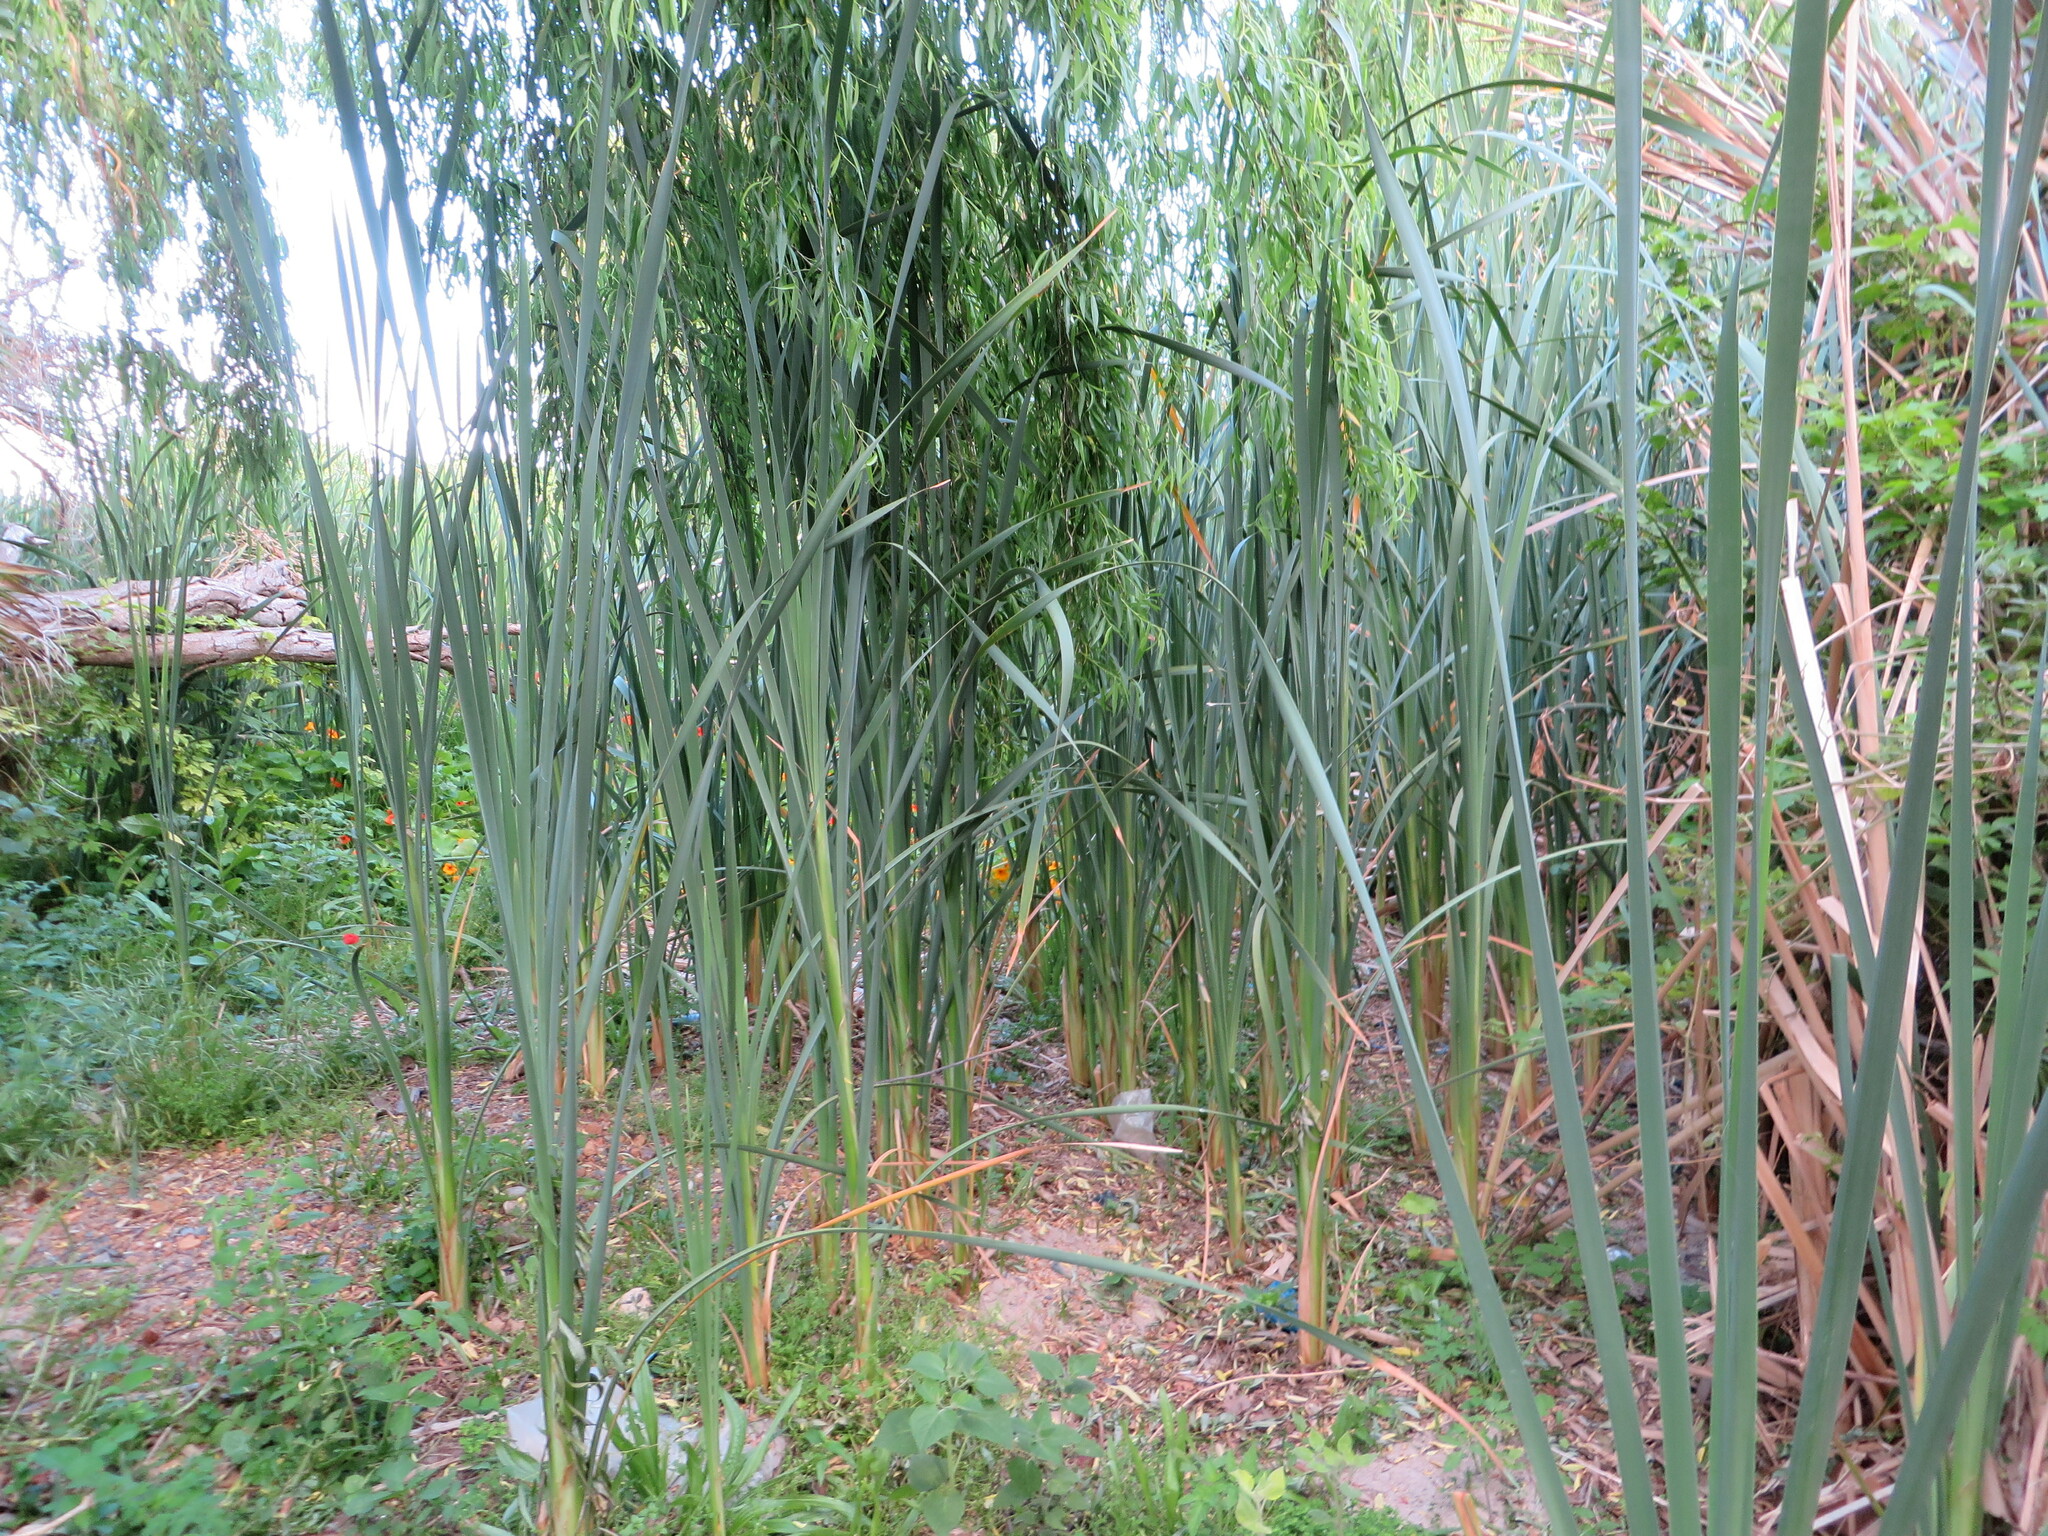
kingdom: Plantae
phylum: Tracheophyta
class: Liliopsida
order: Poales
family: Typhaceae
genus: Typha
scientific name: Typha capensis
